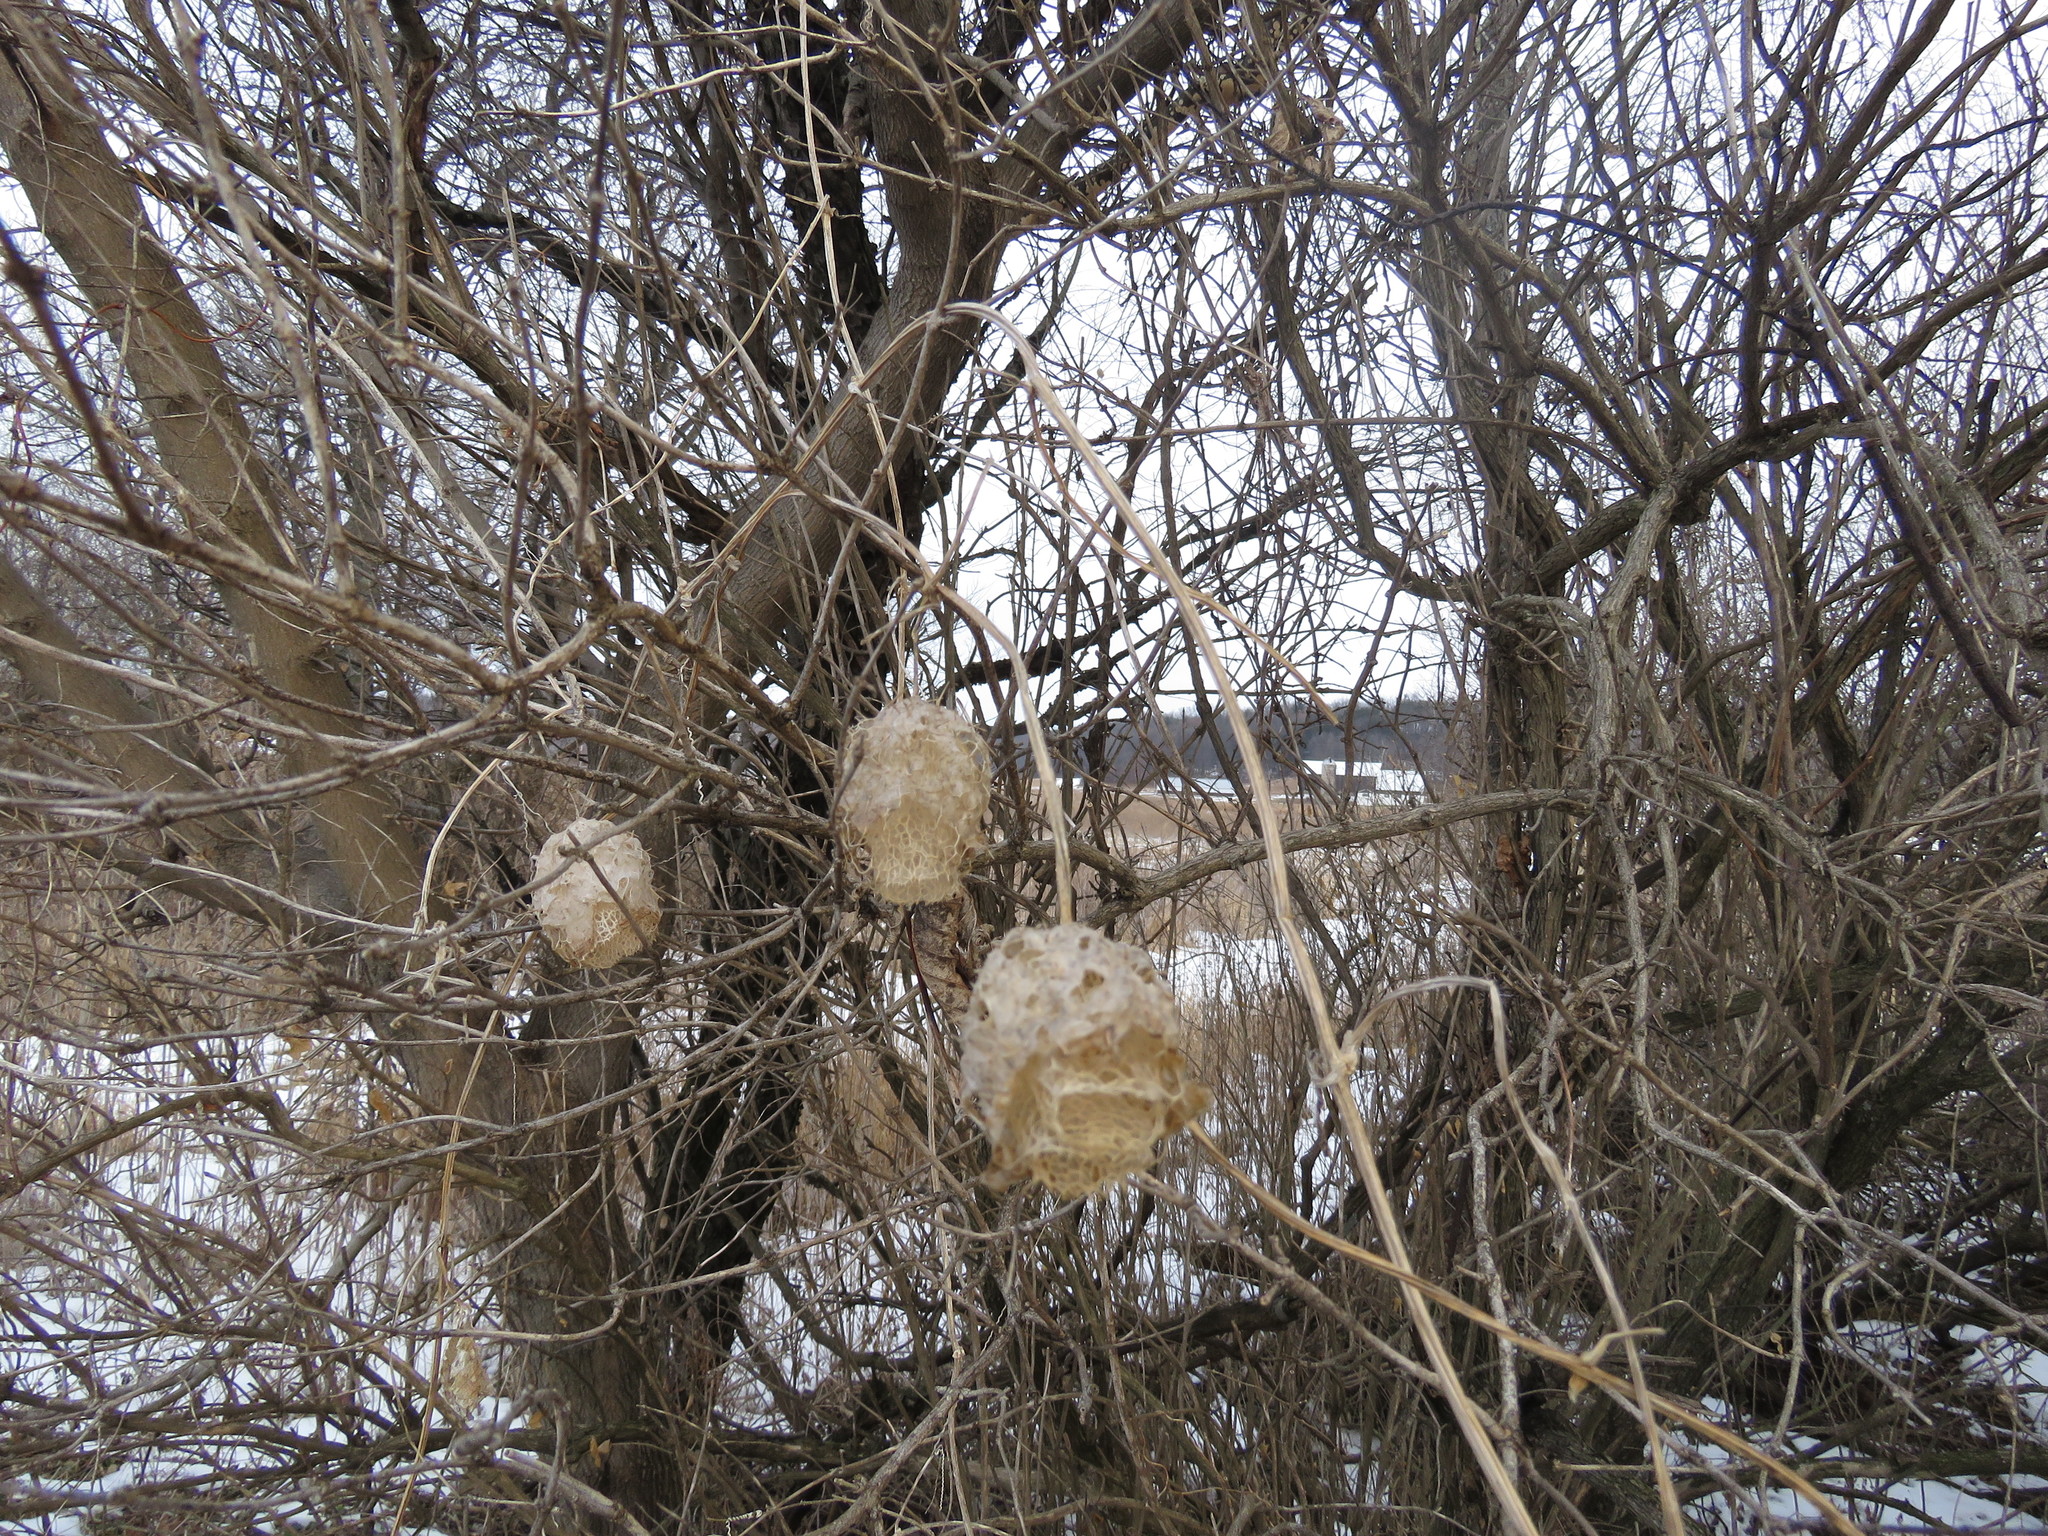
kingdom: Plantae
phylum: Tracheophyta
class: Magnoliopsida
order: Cucurbitales
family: Cucurbitaceae
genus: Echinocystis
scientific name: Echinocystis lobata
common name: Wild cucumber
